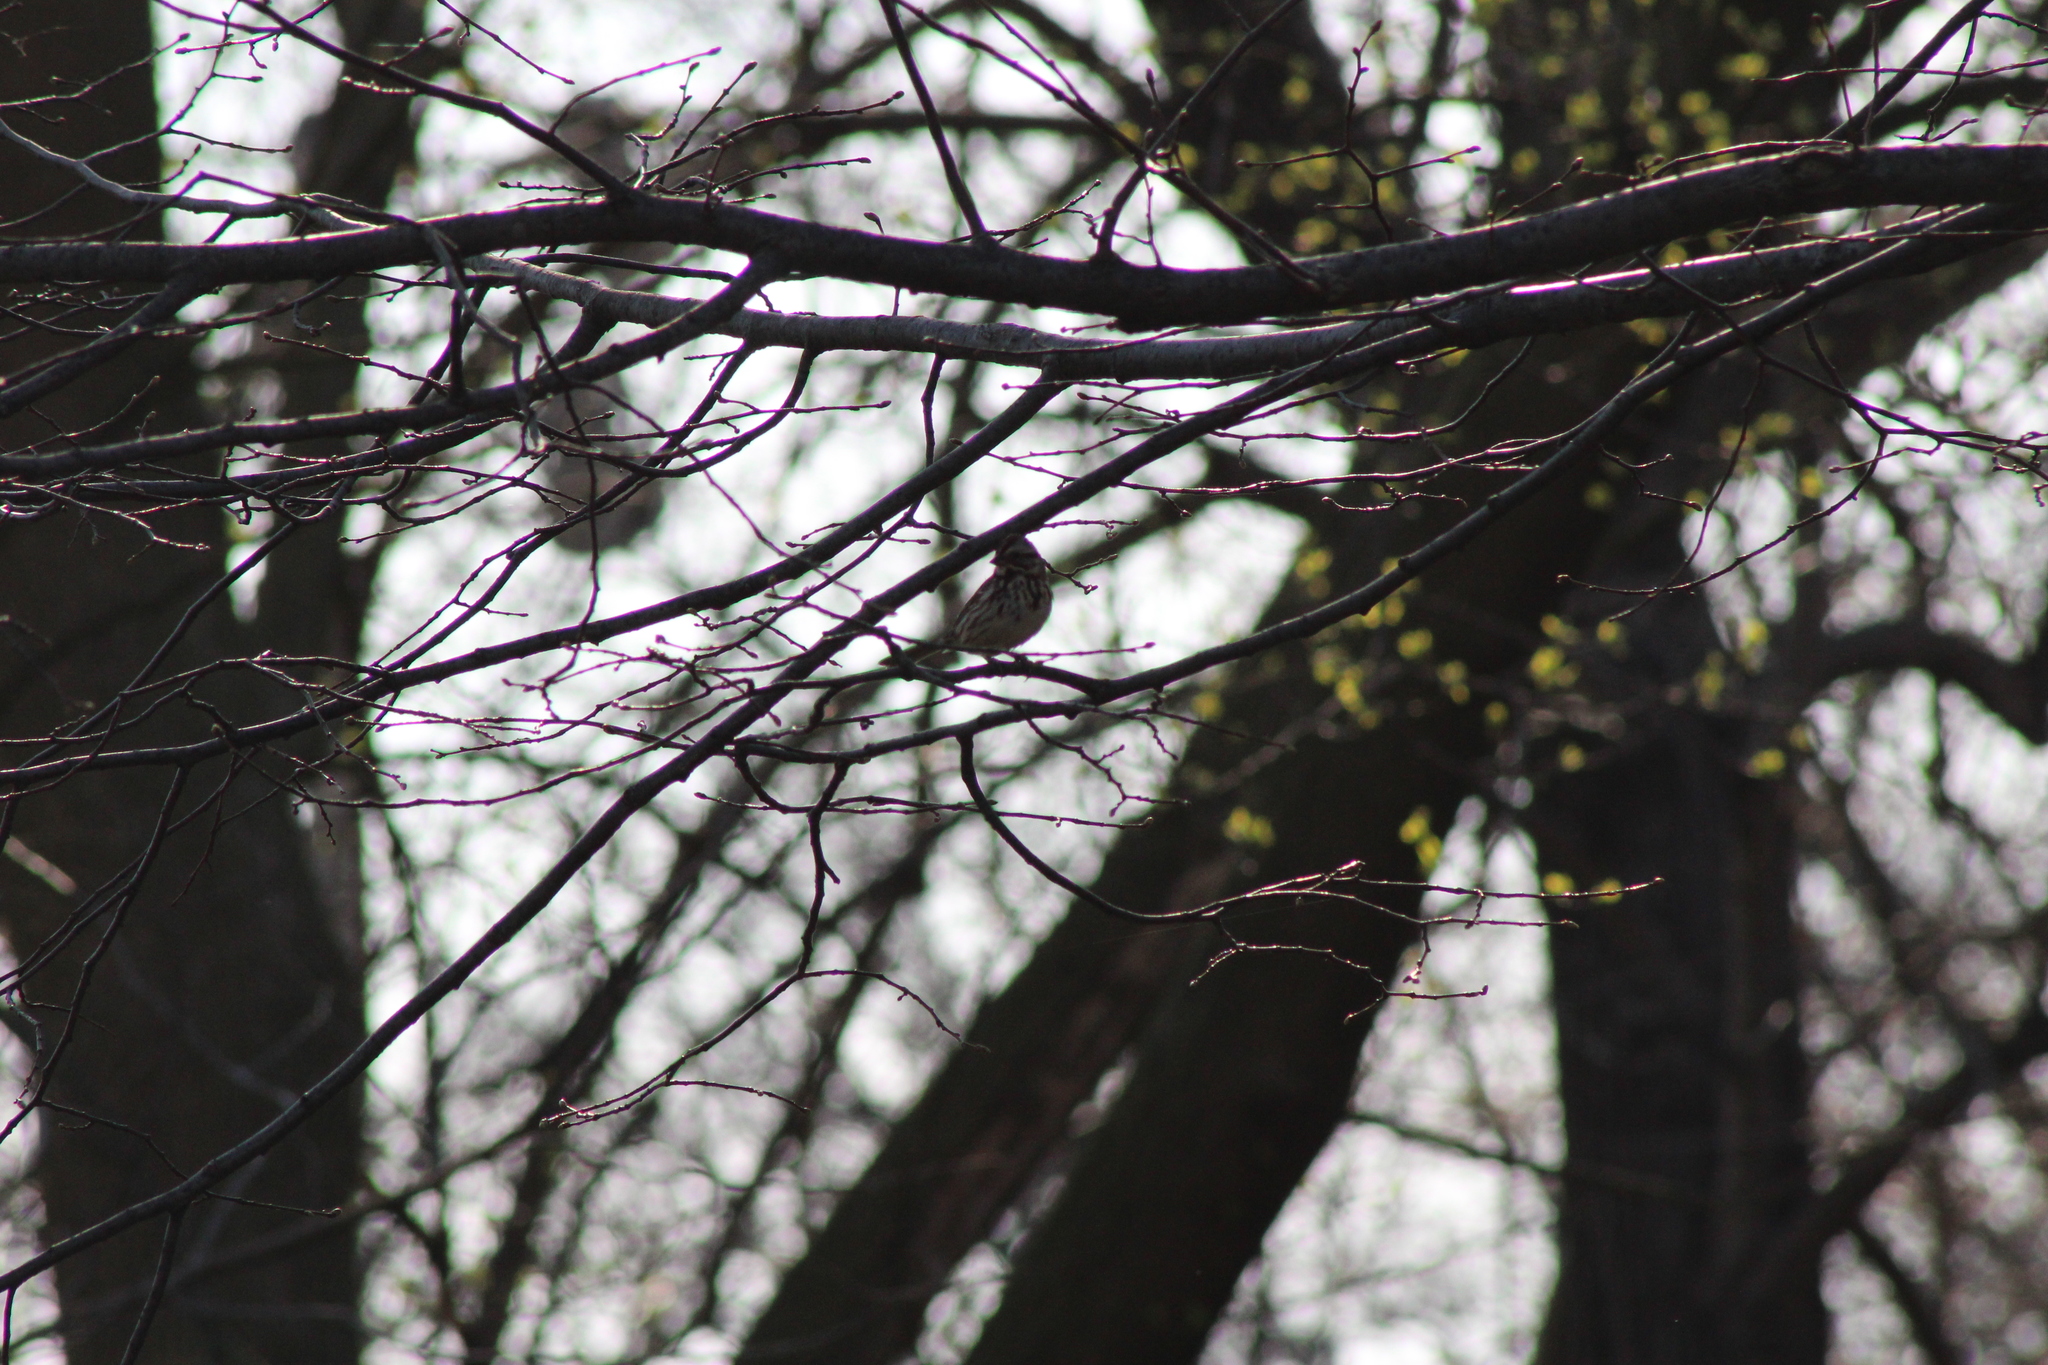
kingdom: Animalia
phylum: Chordata
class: Aves
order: Passeriformes
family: Passerellidae
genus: Melospiza
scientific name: Melospiza melodia
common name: Song sparrow
